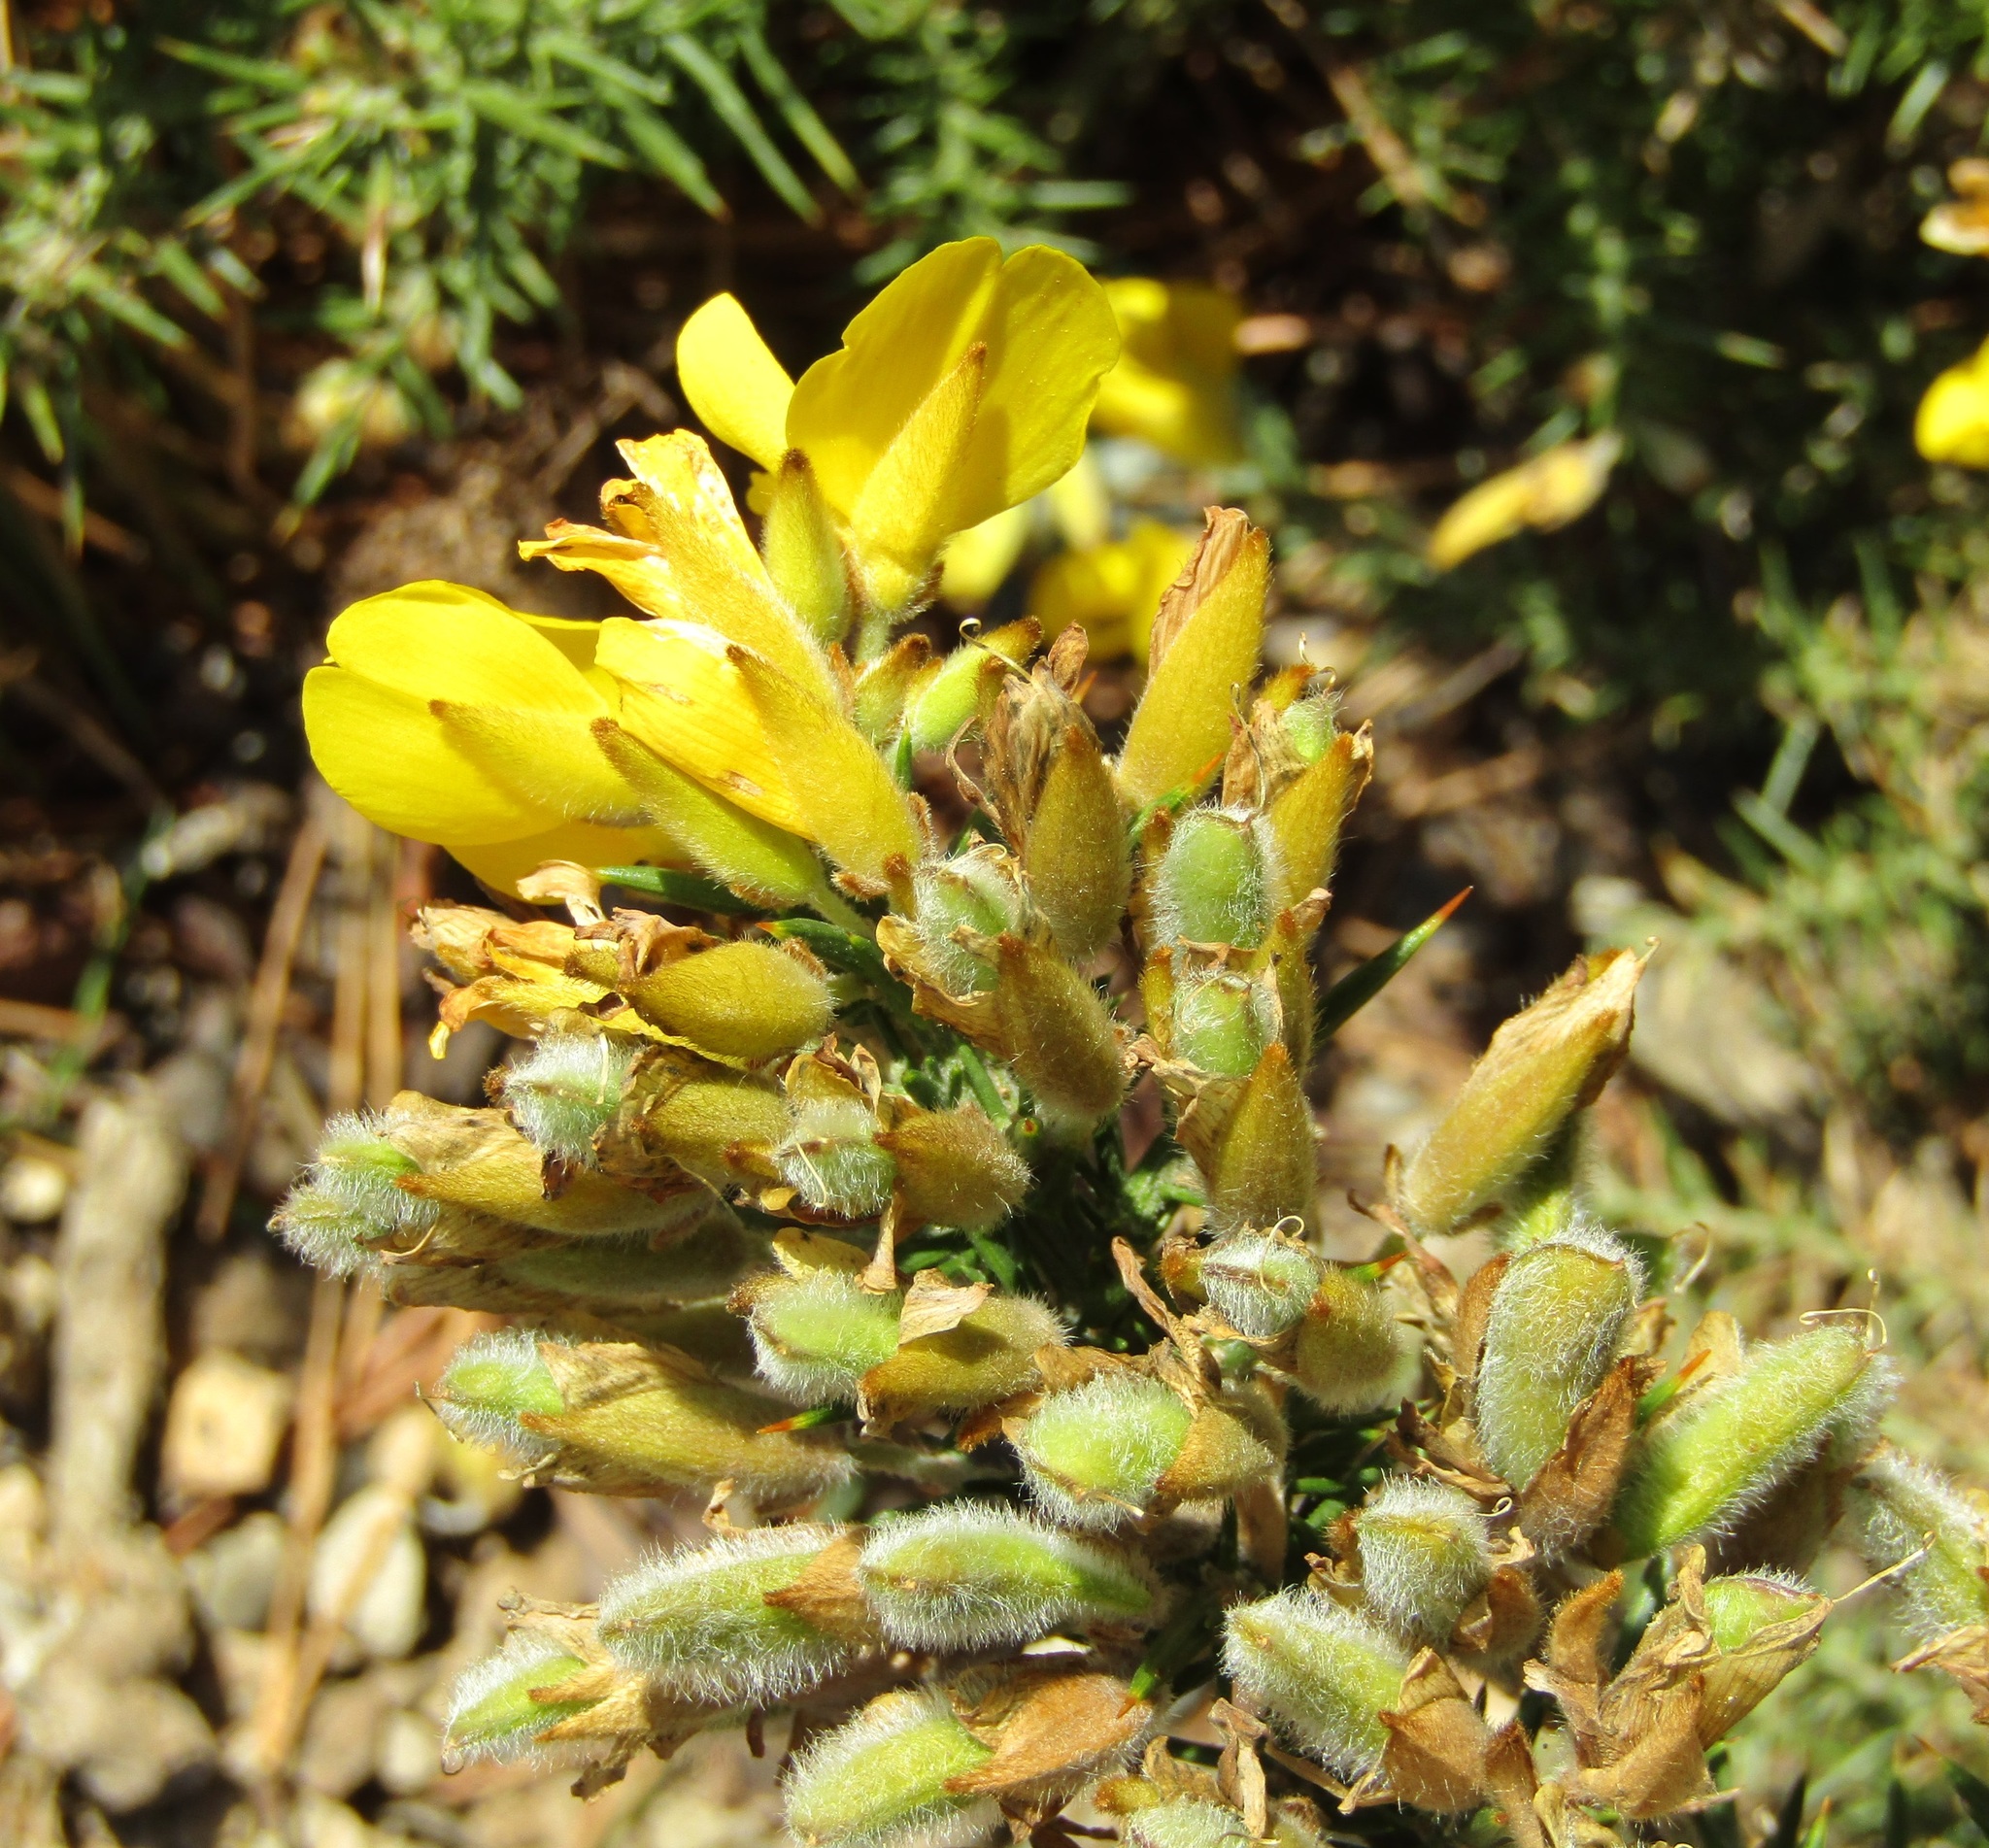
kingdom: Plantae
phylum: Tracheophyta
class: Magnoliopsida
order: Fabales
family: Fabaceae
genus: Ulex
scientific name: Ulex europaeus
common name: Common gorse
